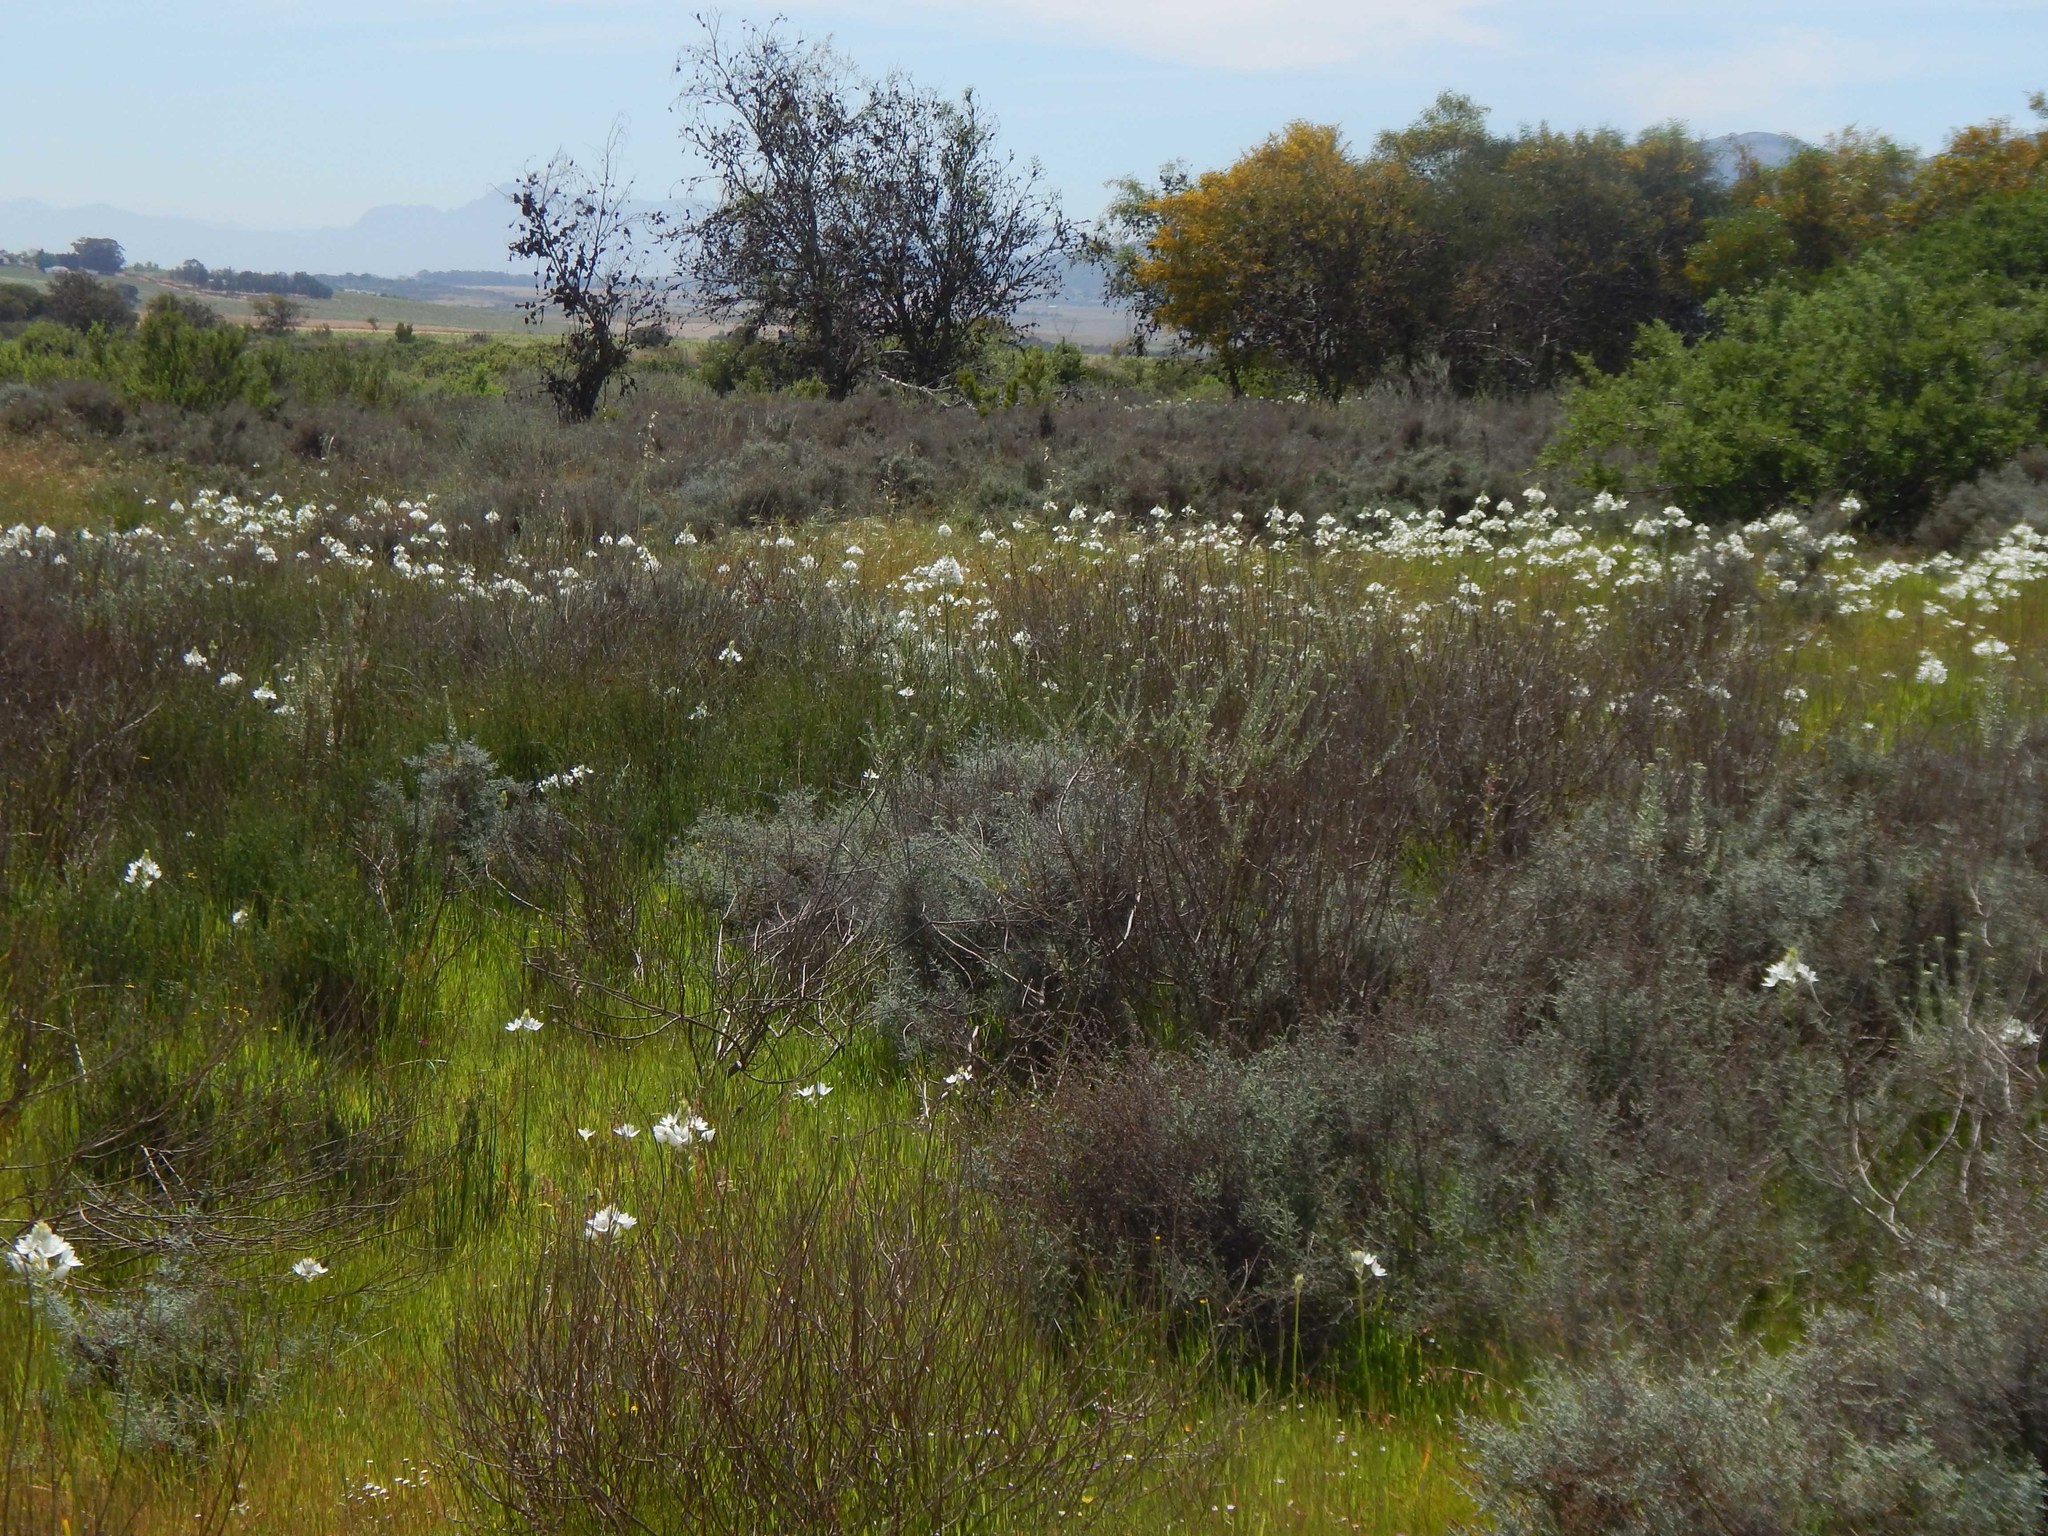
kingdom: Plantae
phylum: Tracheophyta
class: Liliopsida
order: Asparagales
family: Orchidaceae
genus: Pterygodium
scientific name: Pterygodium catholicum
